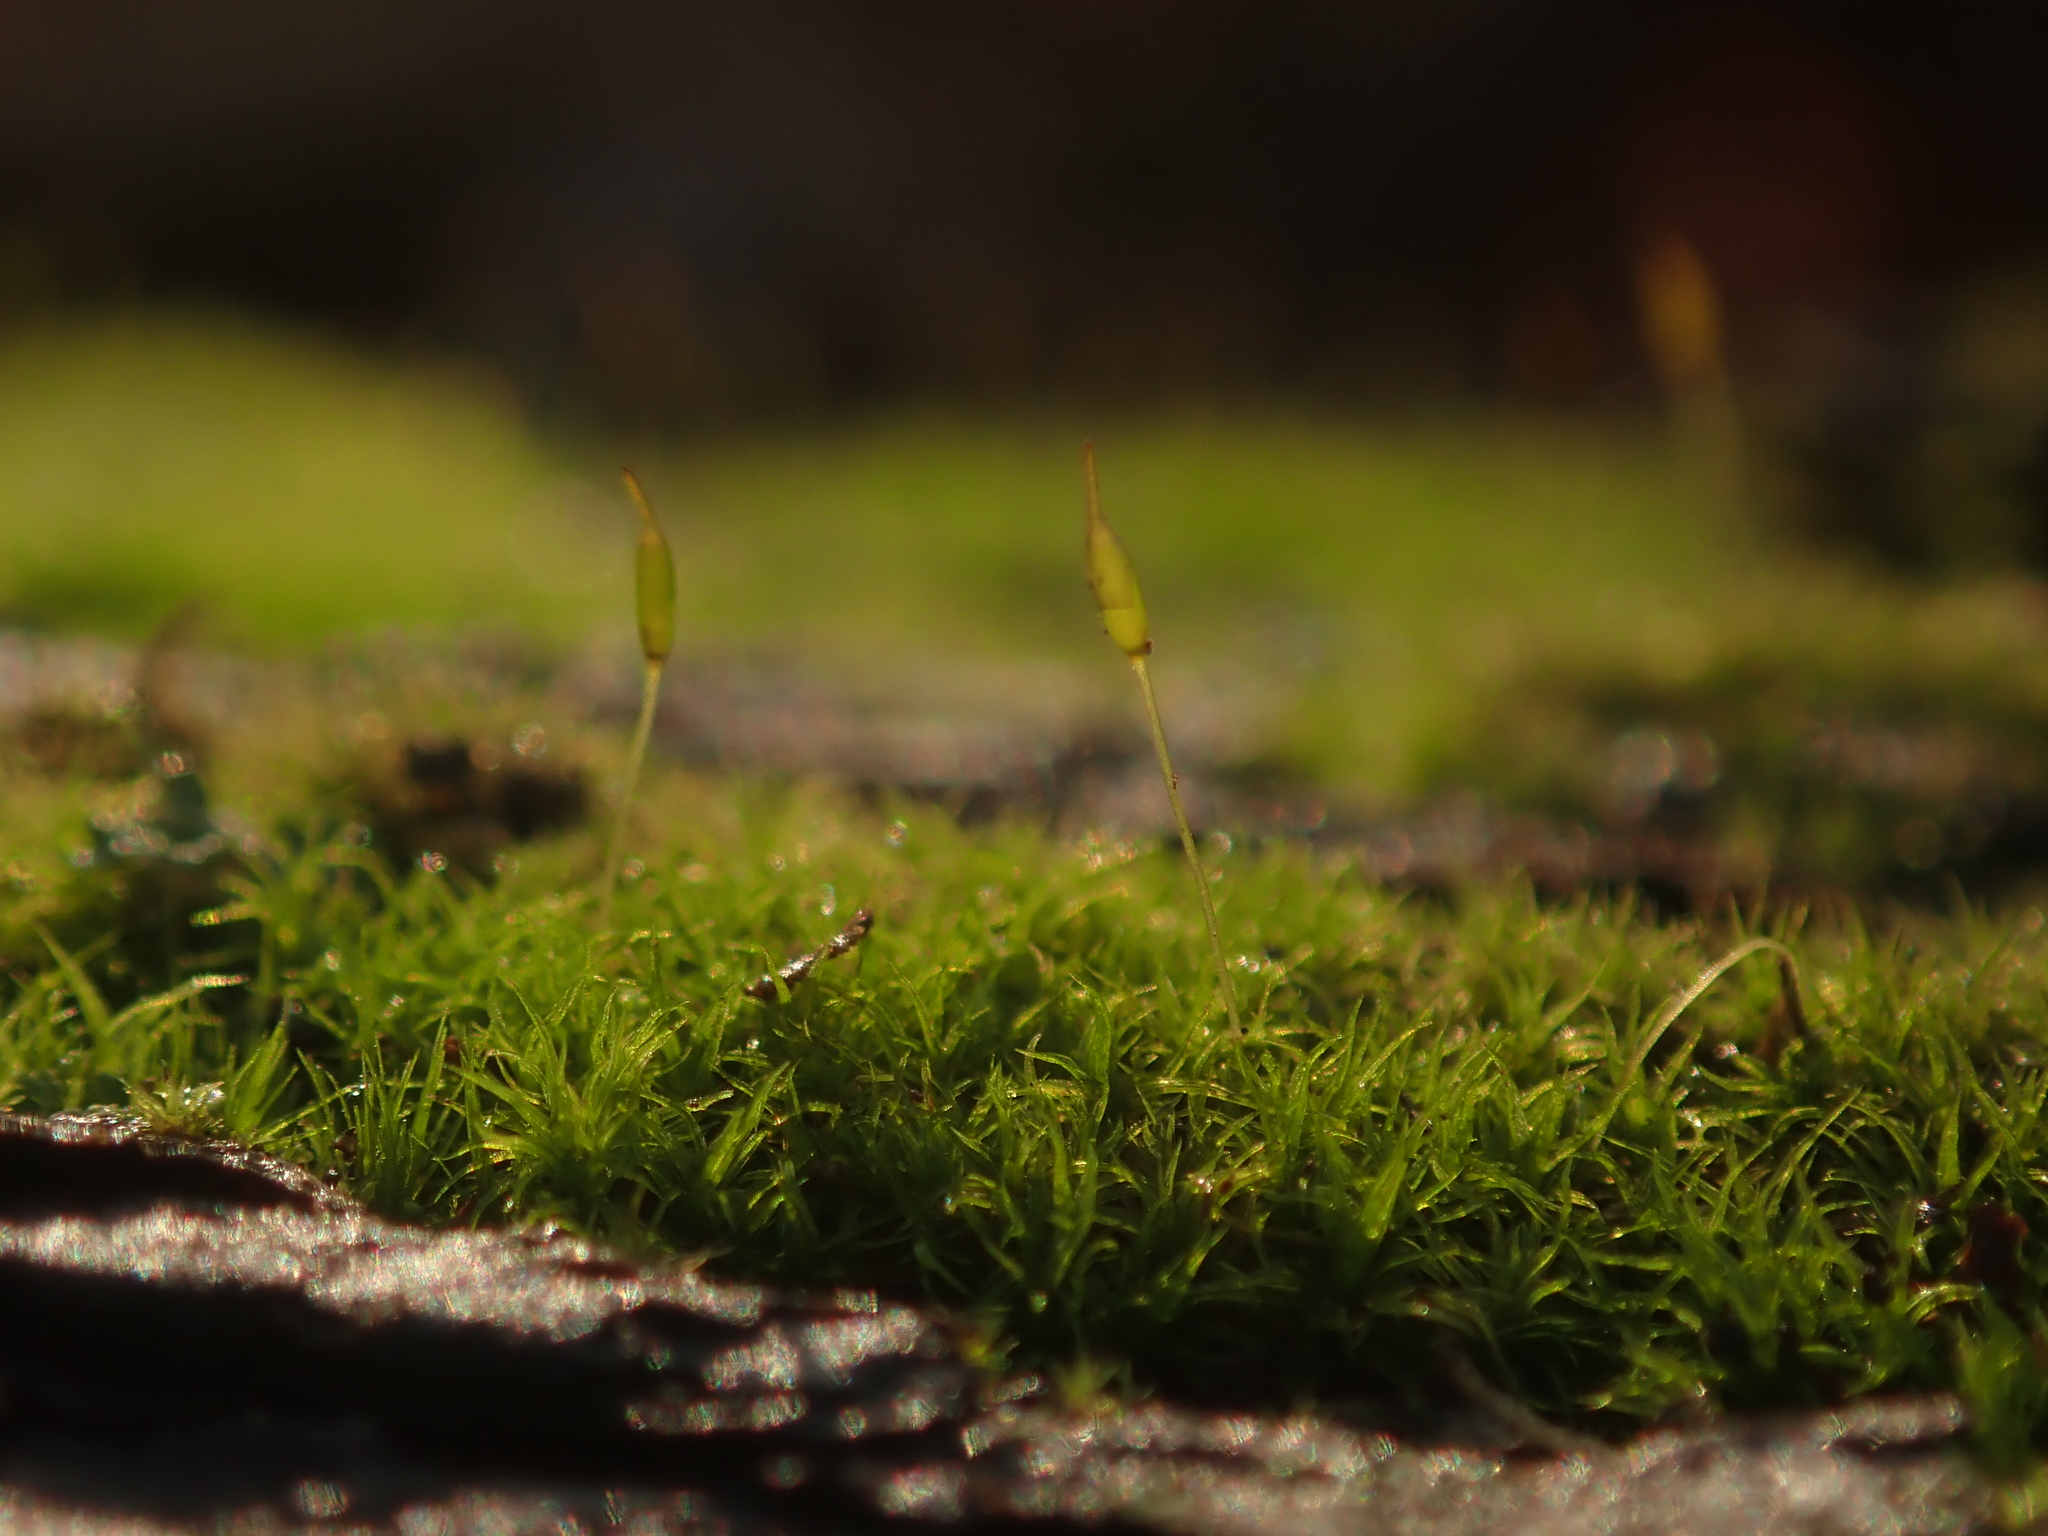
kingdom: Plantae
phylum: Bryophyta
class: Bryopsida
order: Dicranales
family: Rhabdoweisiaceae
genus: Dicranoweisia
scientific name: Dicranoweisia cirrata
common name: Common pincushion
